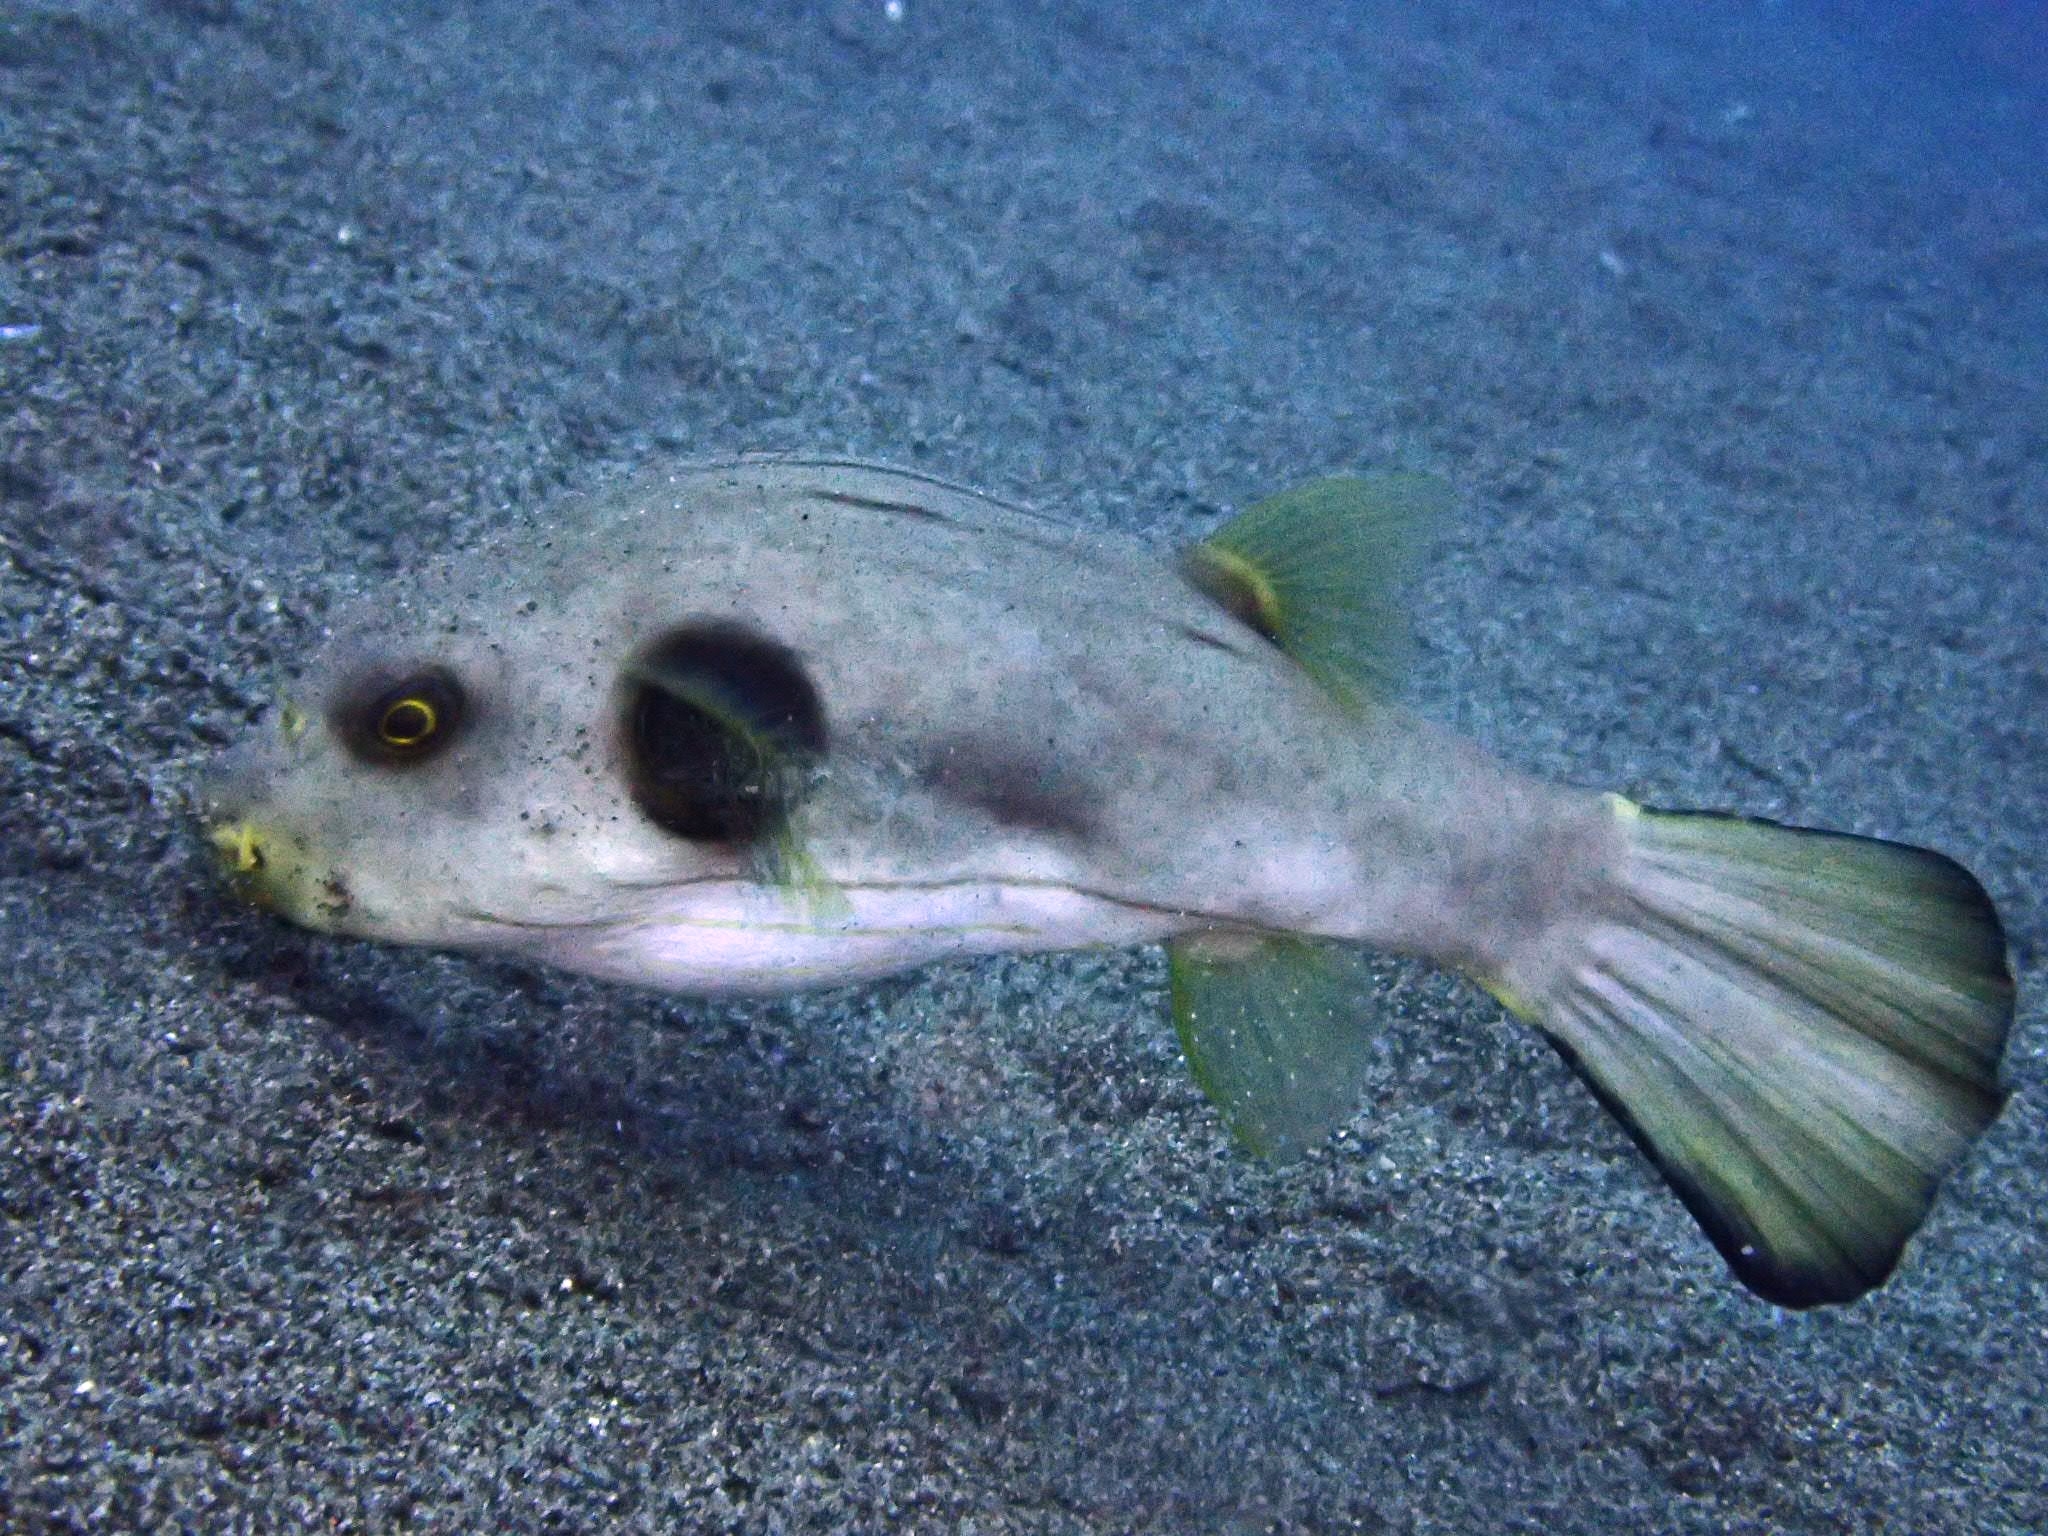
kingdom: Animalia
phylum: Chordata
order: Tetraodontiformes
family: Tetraodontidae
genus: Arothron
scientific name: Arothron manilensis
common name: Narrow-lined puffer
